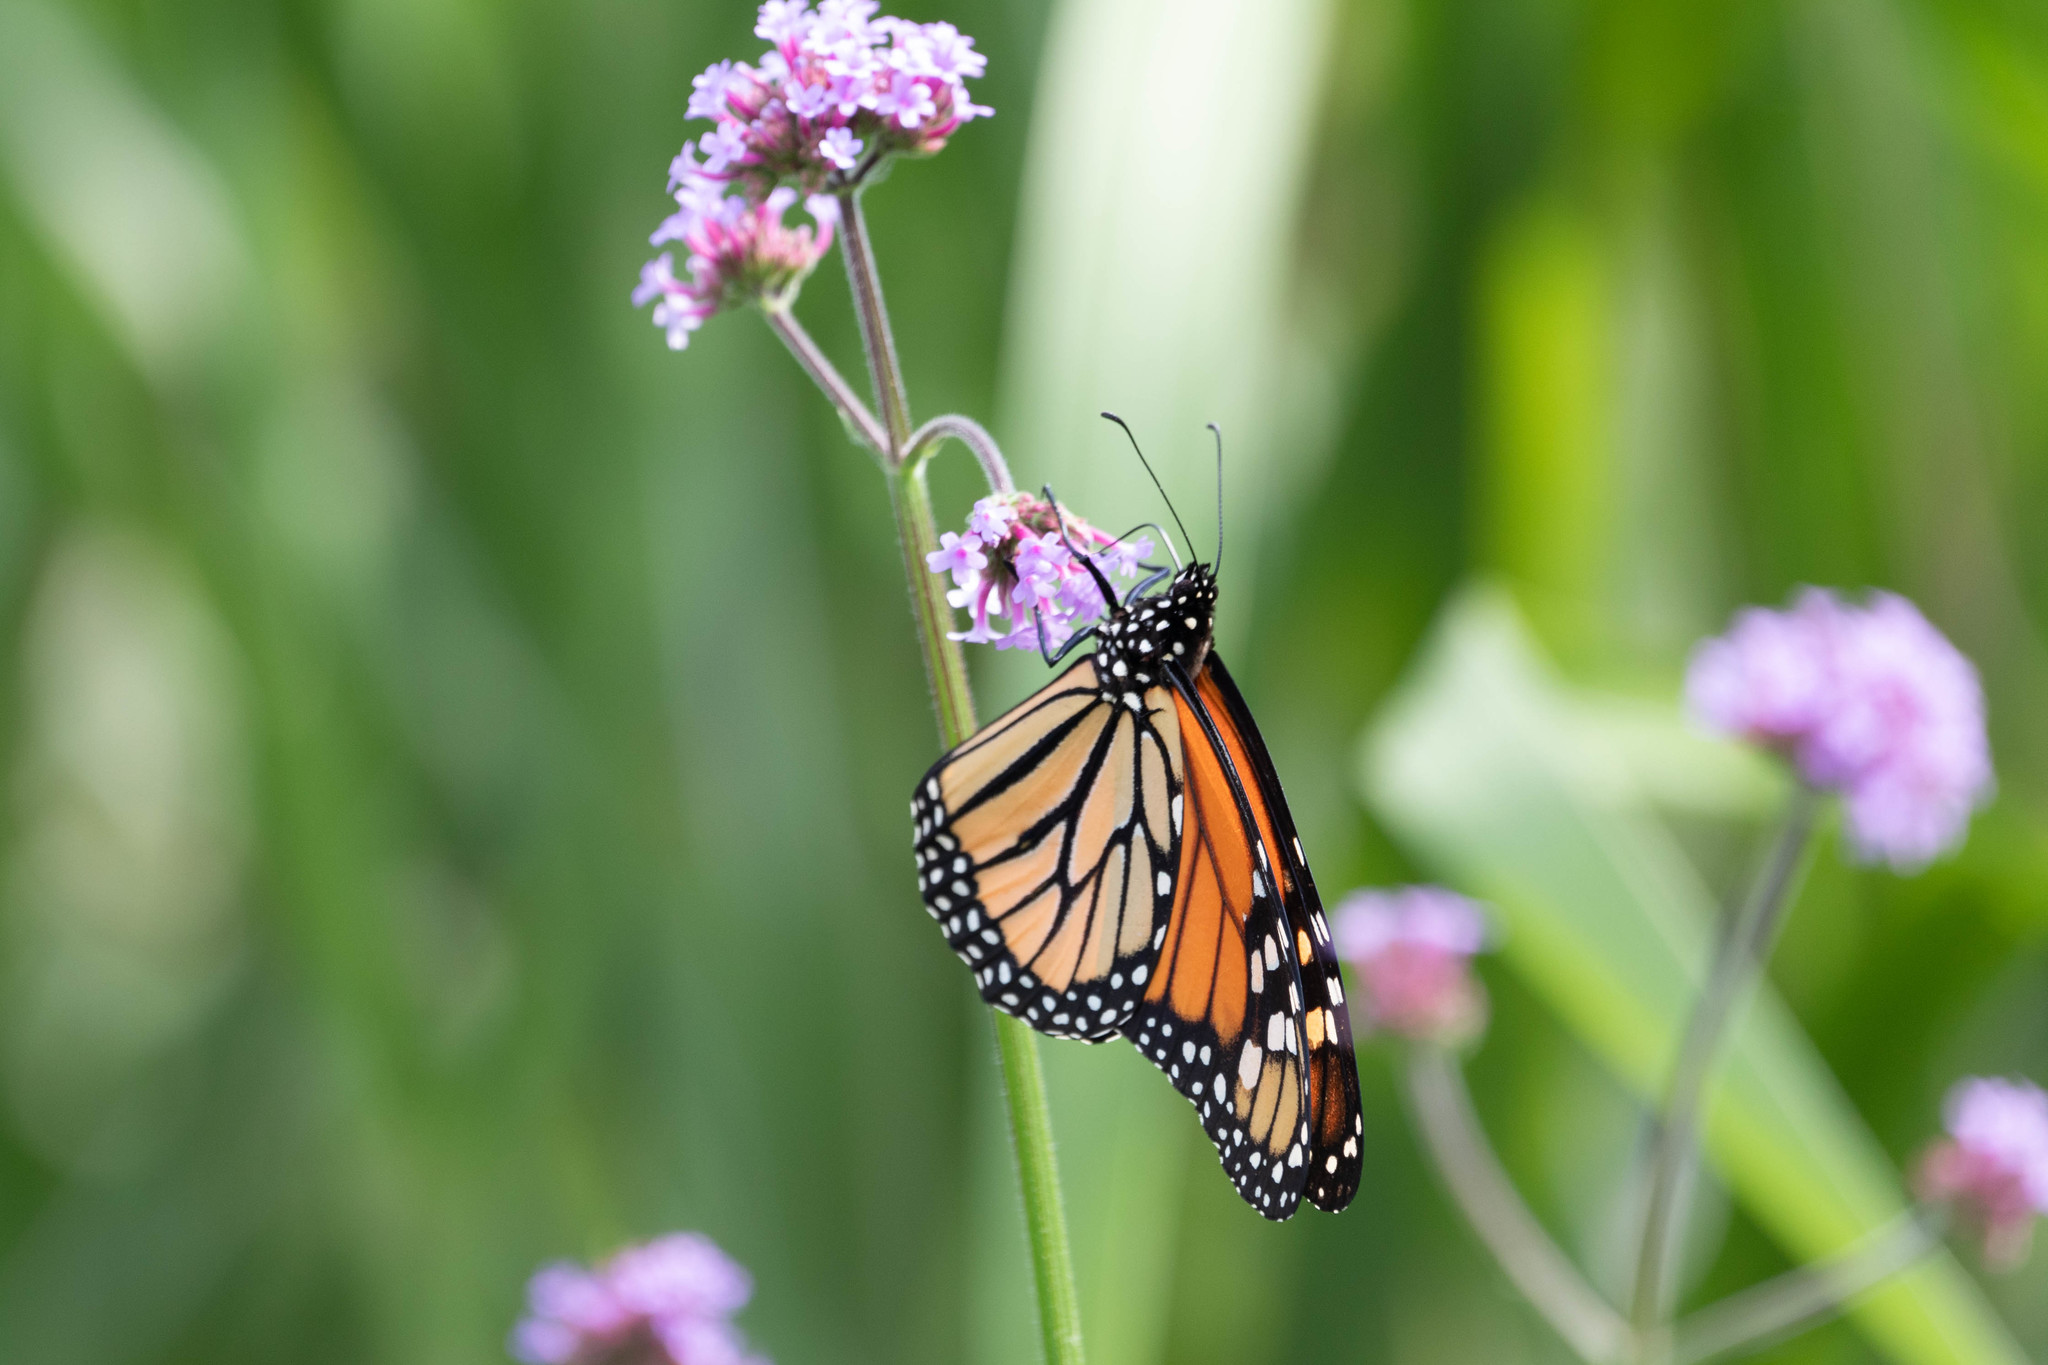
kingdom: Animalia
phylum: Arthropoda
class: Insecta
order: Lepidoptera
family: Nymphalidae
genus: Danaus
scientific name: Danaus plexippus
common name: Monarch
